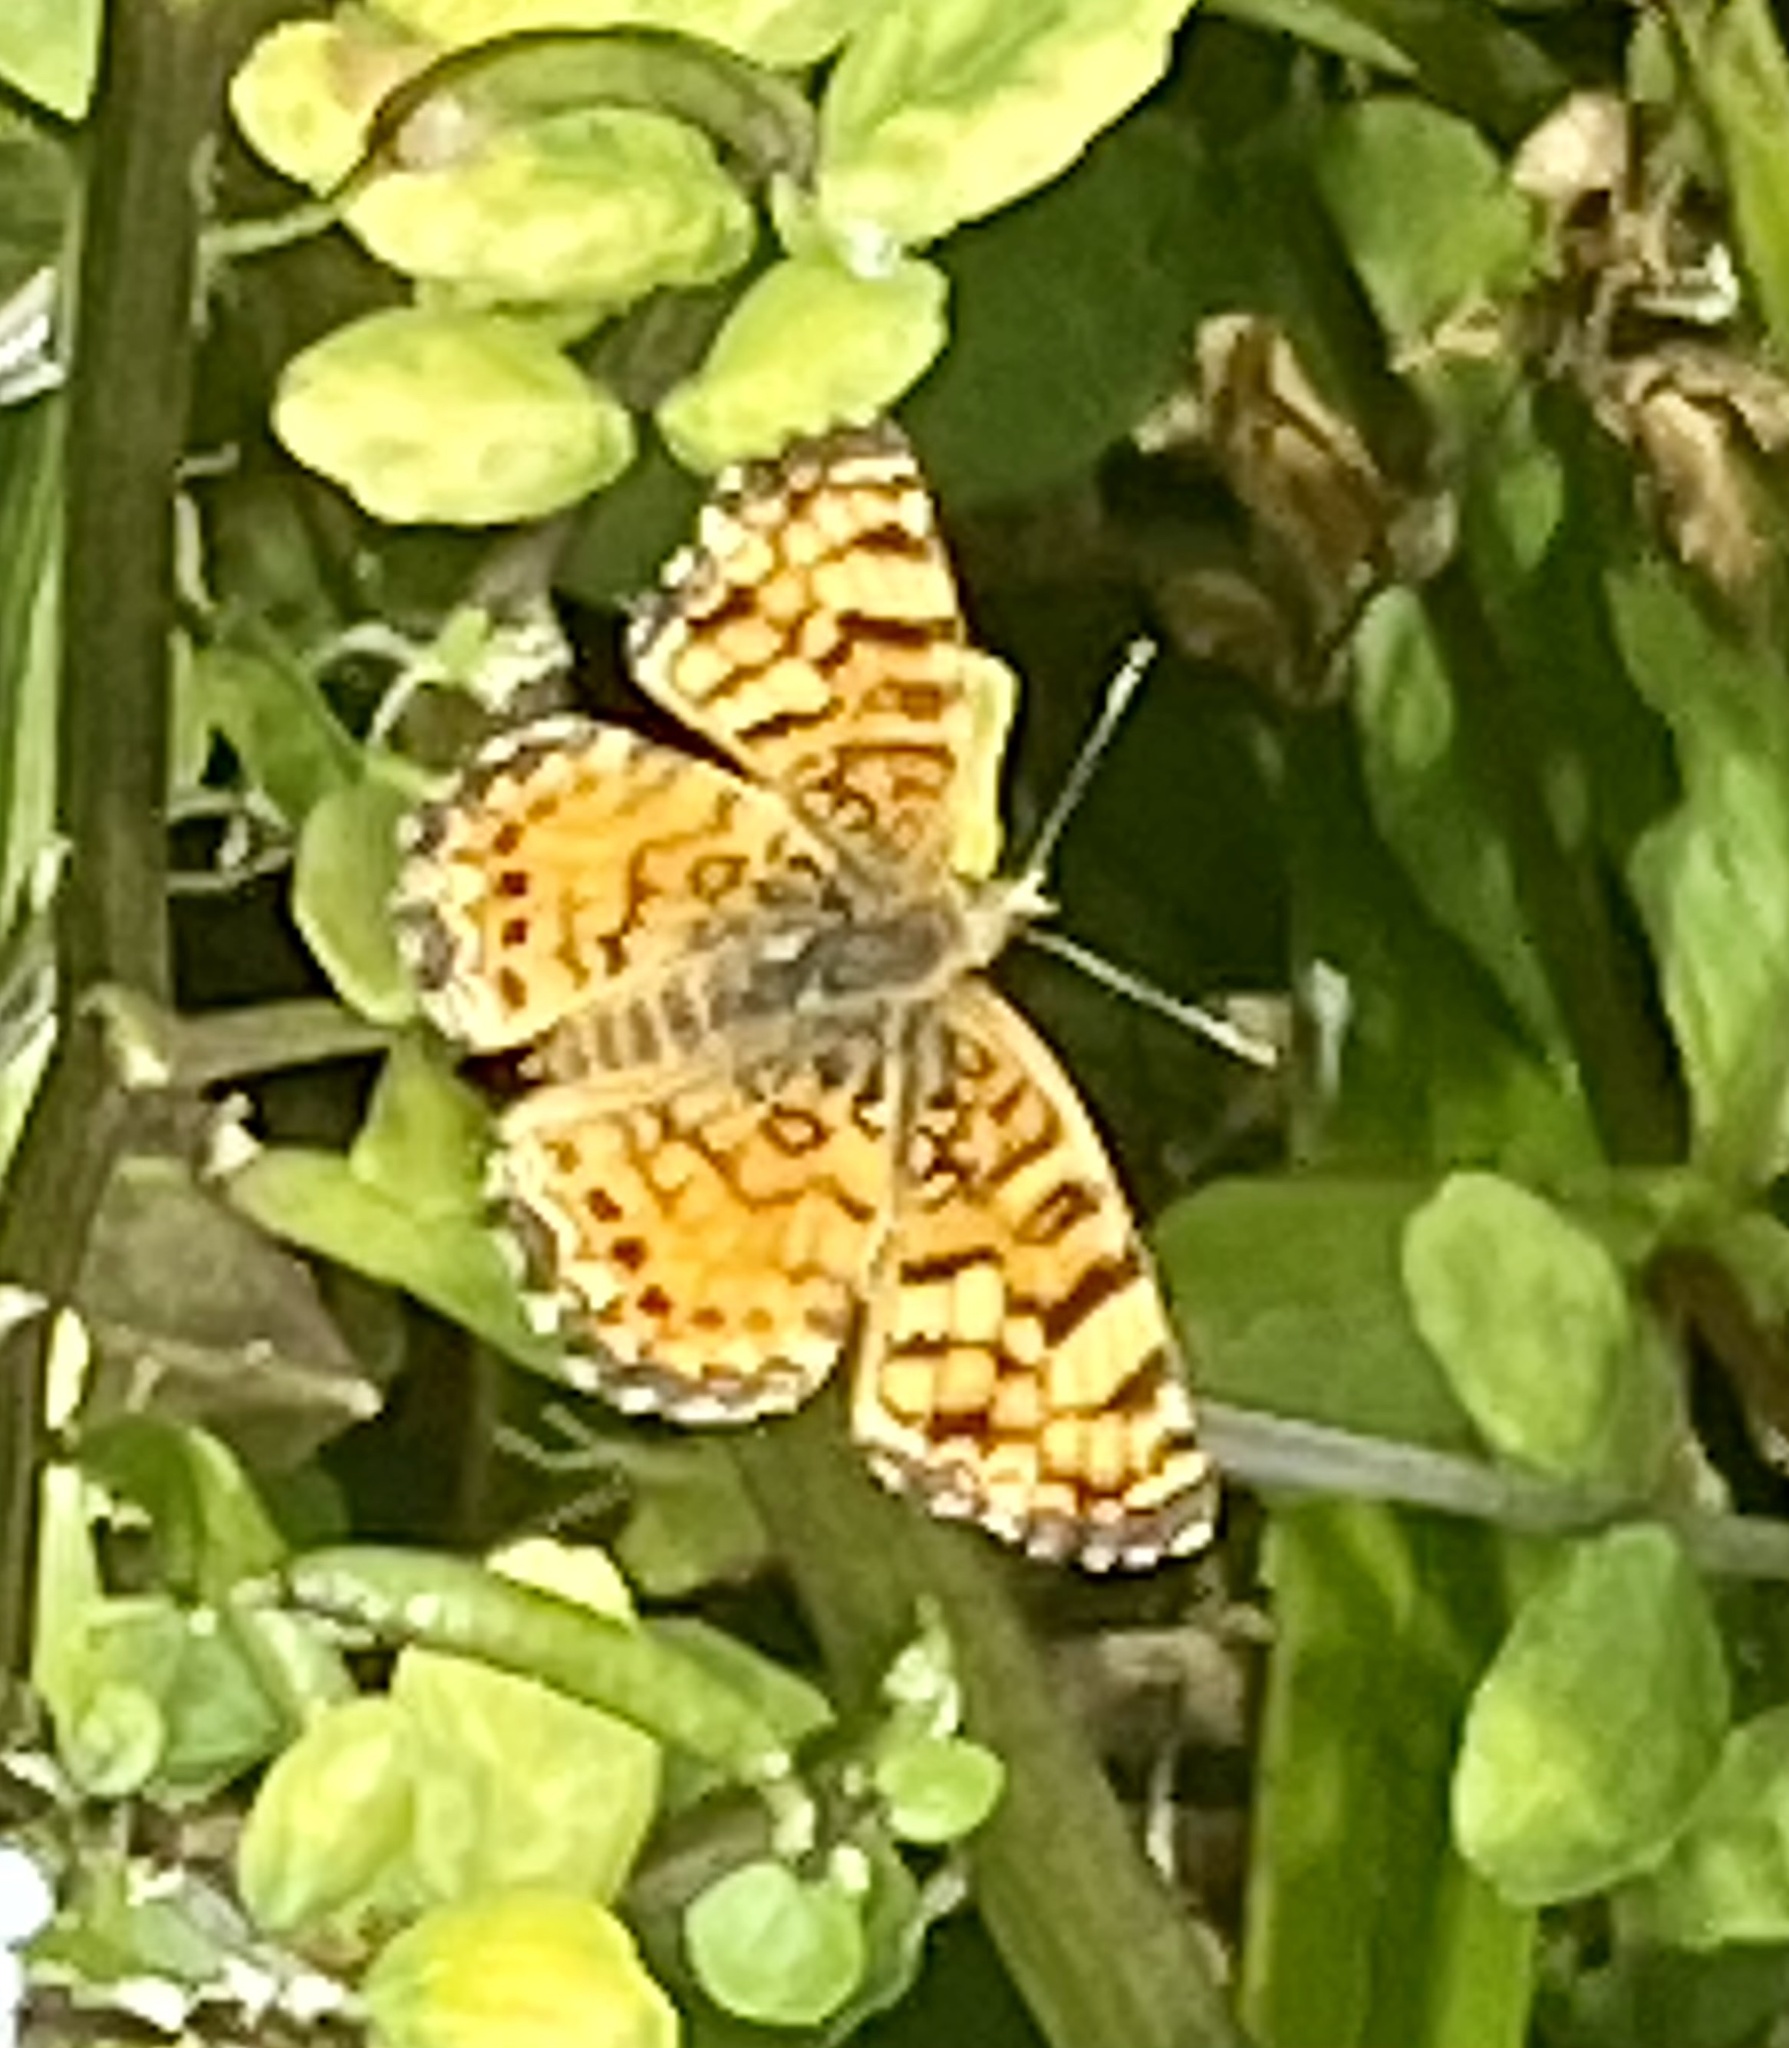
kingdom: Animalia
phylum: Arthropoda
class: Insecta
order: Lepidoptera
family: Nymphalidae
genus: Eresia
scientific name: Eresia aveyrona
